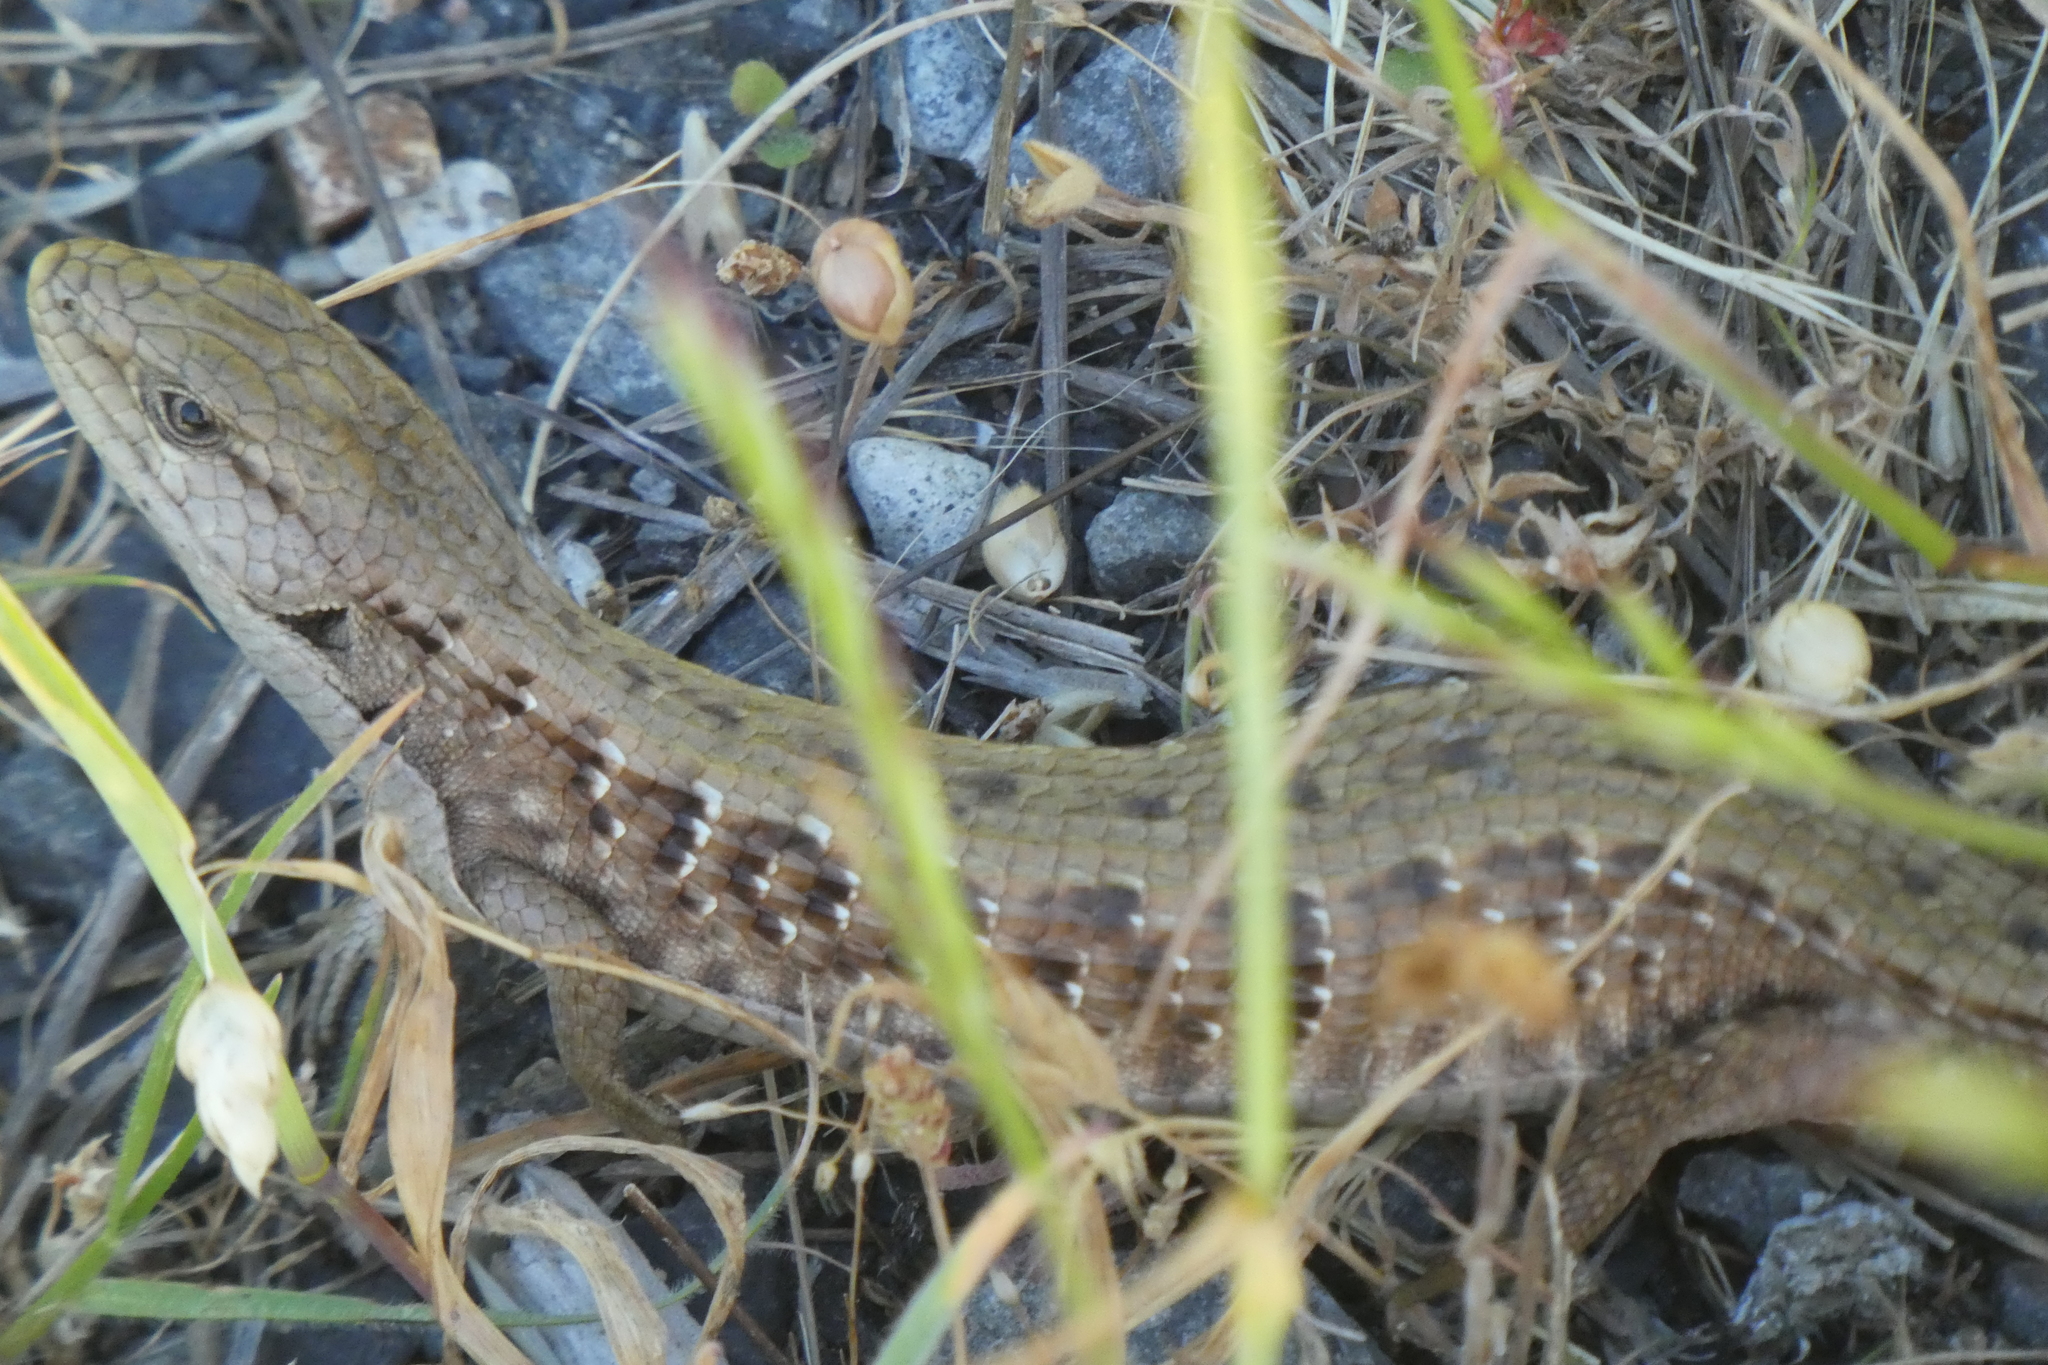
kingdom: Animalia
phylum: Chordata
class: Squamata
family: Anguidae
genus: Elgaria
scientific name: Elgaria coerulea
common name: Northern alligator lizard
